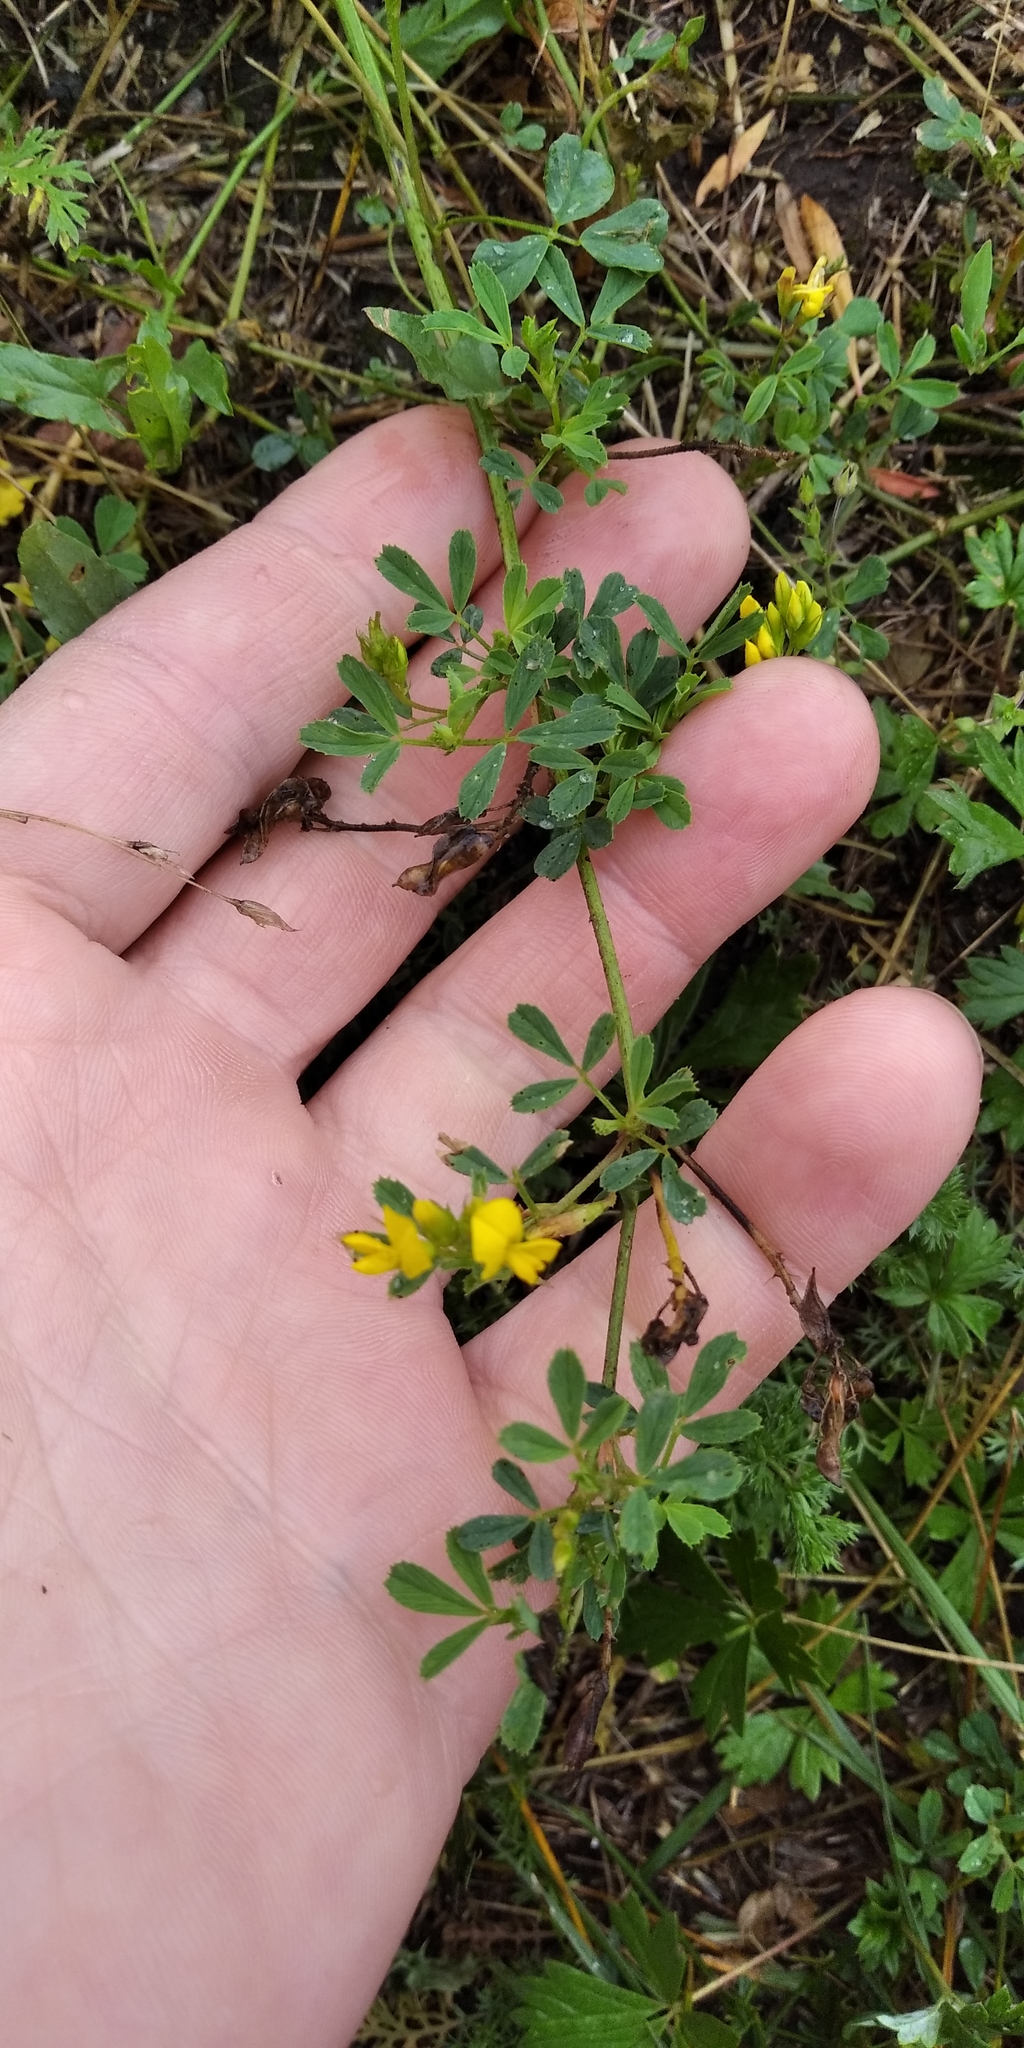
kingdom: Plantae
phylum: Tracheophyta
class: Magnoliopsida
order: Fabales
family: Fabaceae
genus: Medicago
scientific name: Medicago falcata
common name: Sickle medick
